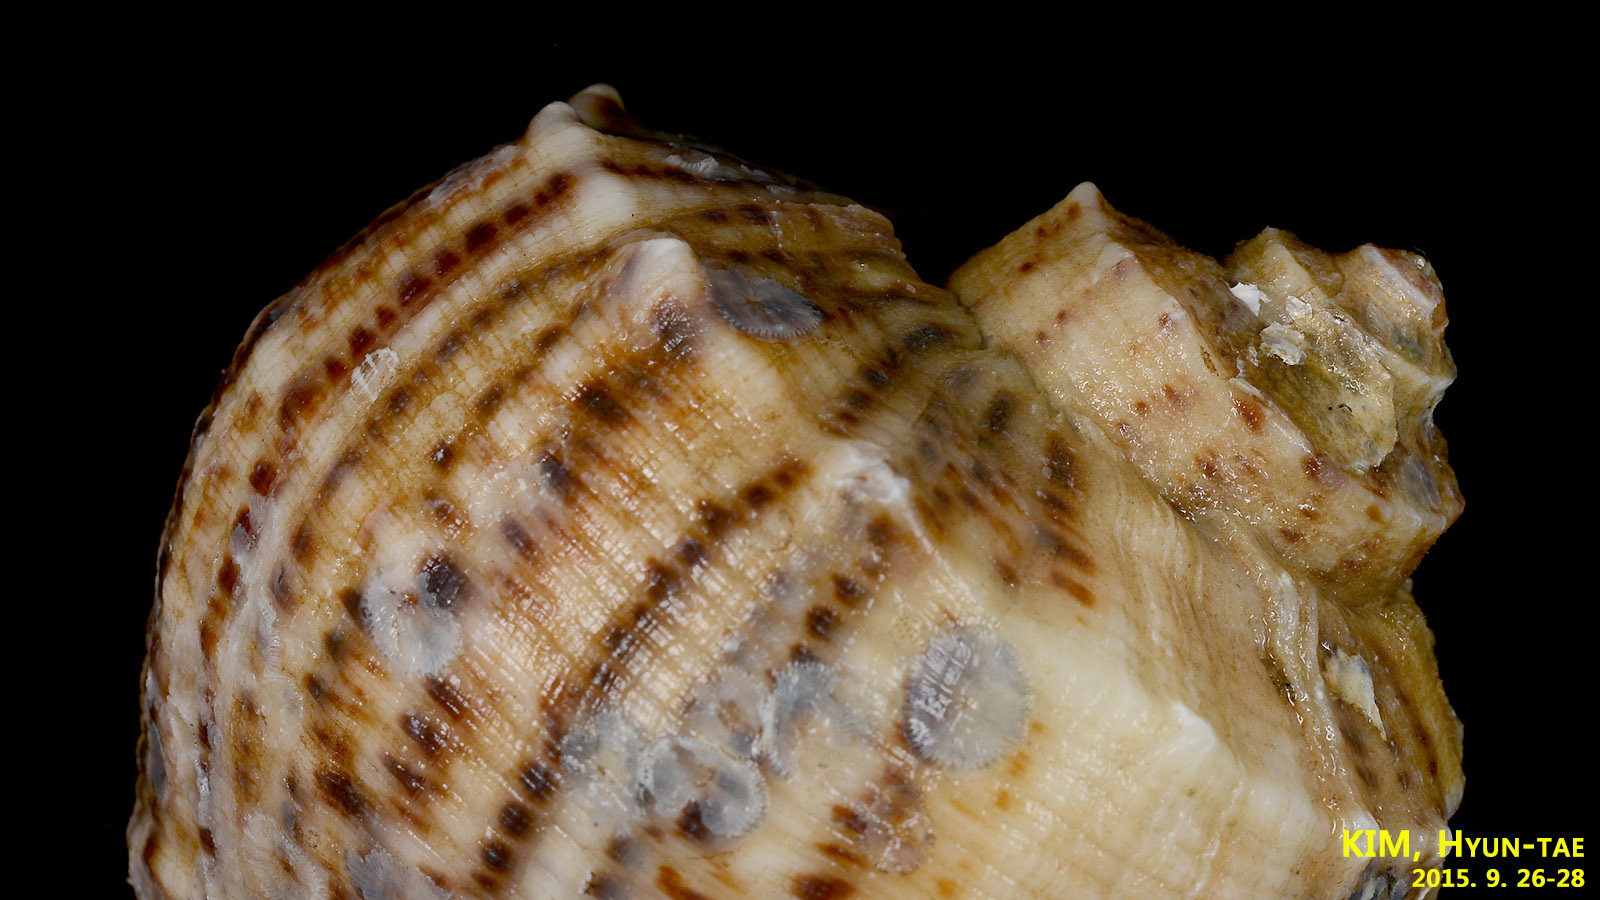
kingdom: Animalia
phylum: Mollusca
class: Gastropoda
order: Neogastropoda
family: Muricidae
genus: Rapana
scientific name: Rapana venosa
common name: Veined rapa whelk
